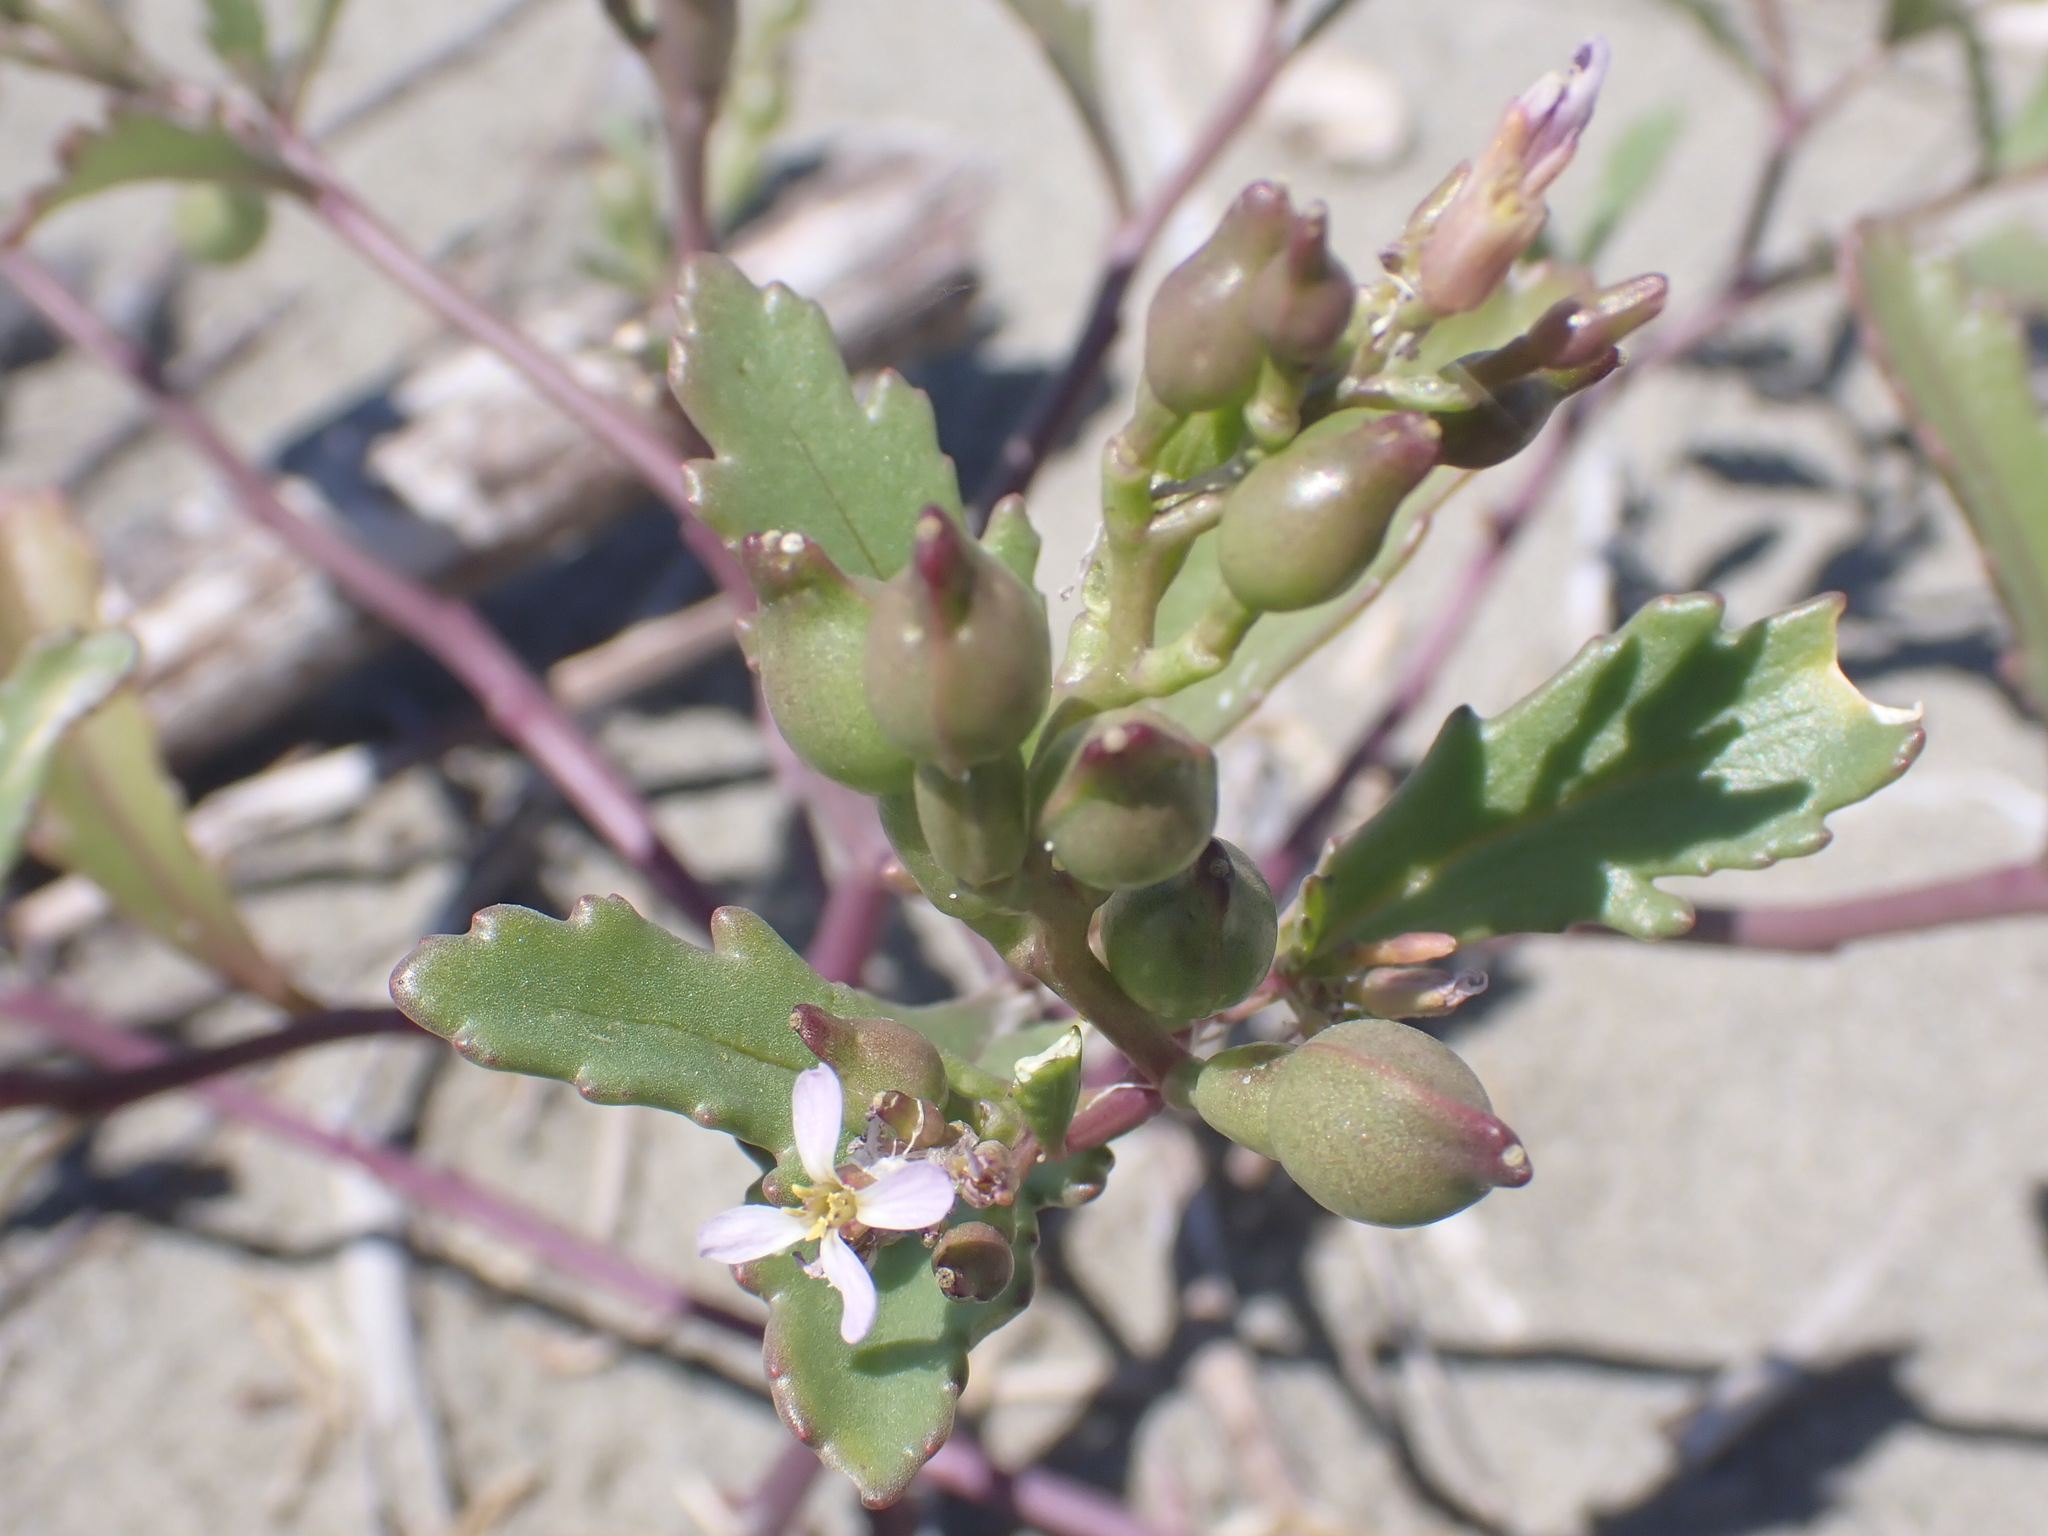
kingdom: Plantae
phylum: Tracheophyta
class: Magnoliopsida
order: Brassicales
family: Brassicaceae
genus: Cakile
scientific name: Cakile edentula
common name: American sea rocket
